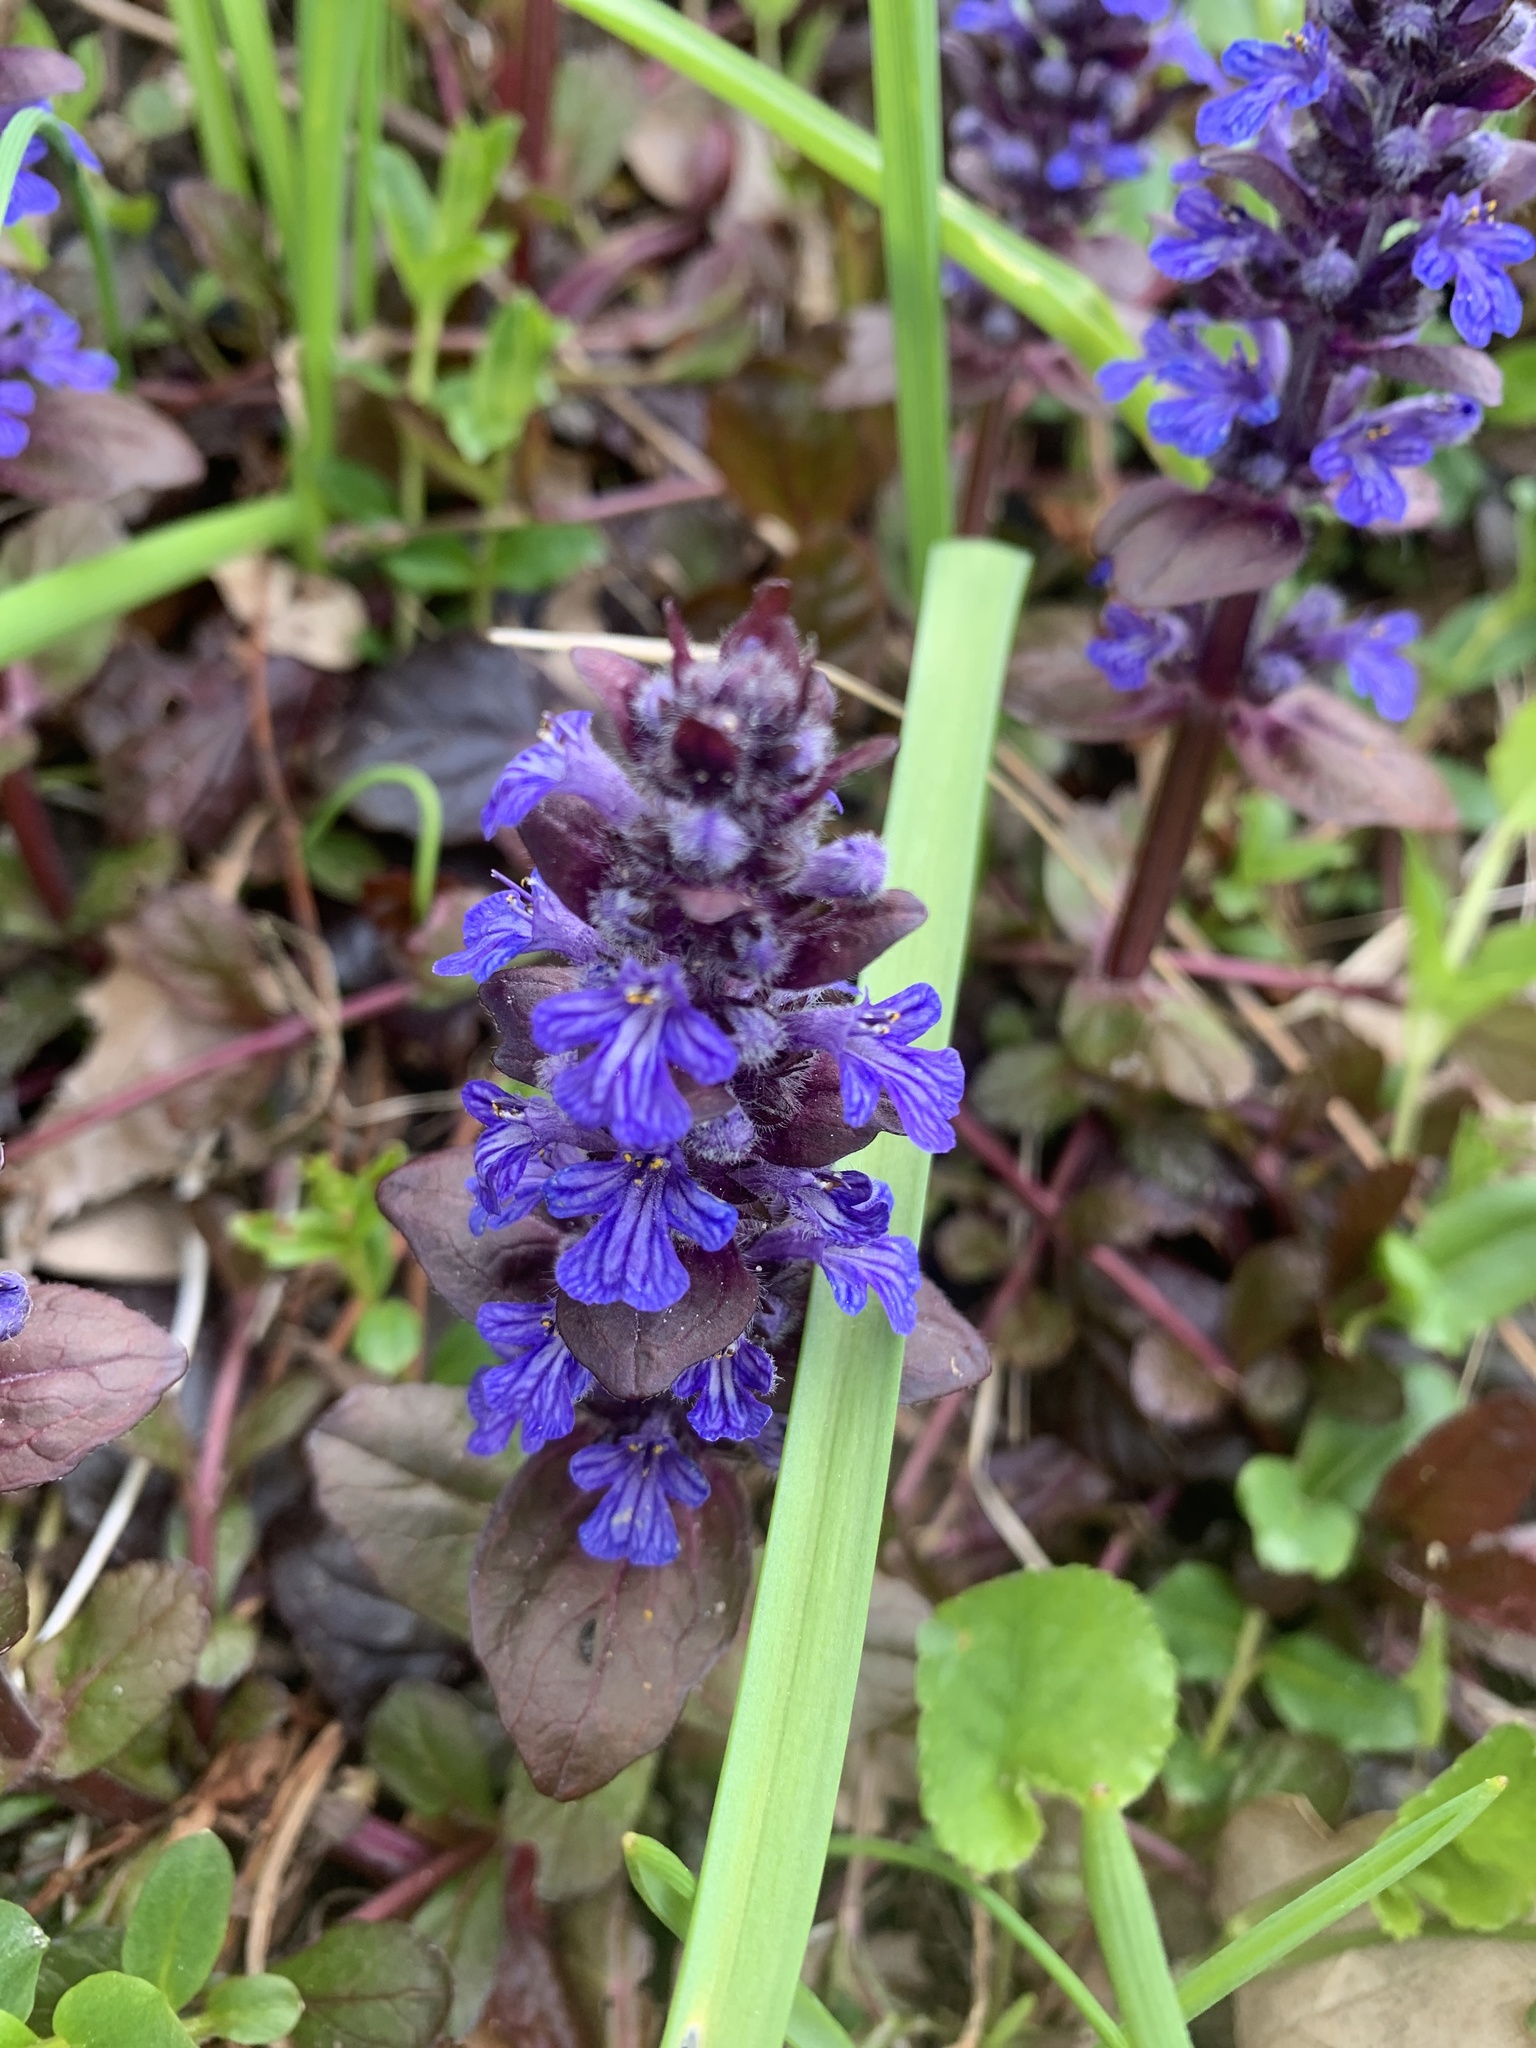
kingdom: Plantae
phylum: Tracheophyta
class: Magnoliopsida
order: Lamiales
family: Lamiaceae
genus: Ajuga
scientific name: Ajuga reptans
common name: Bugle
